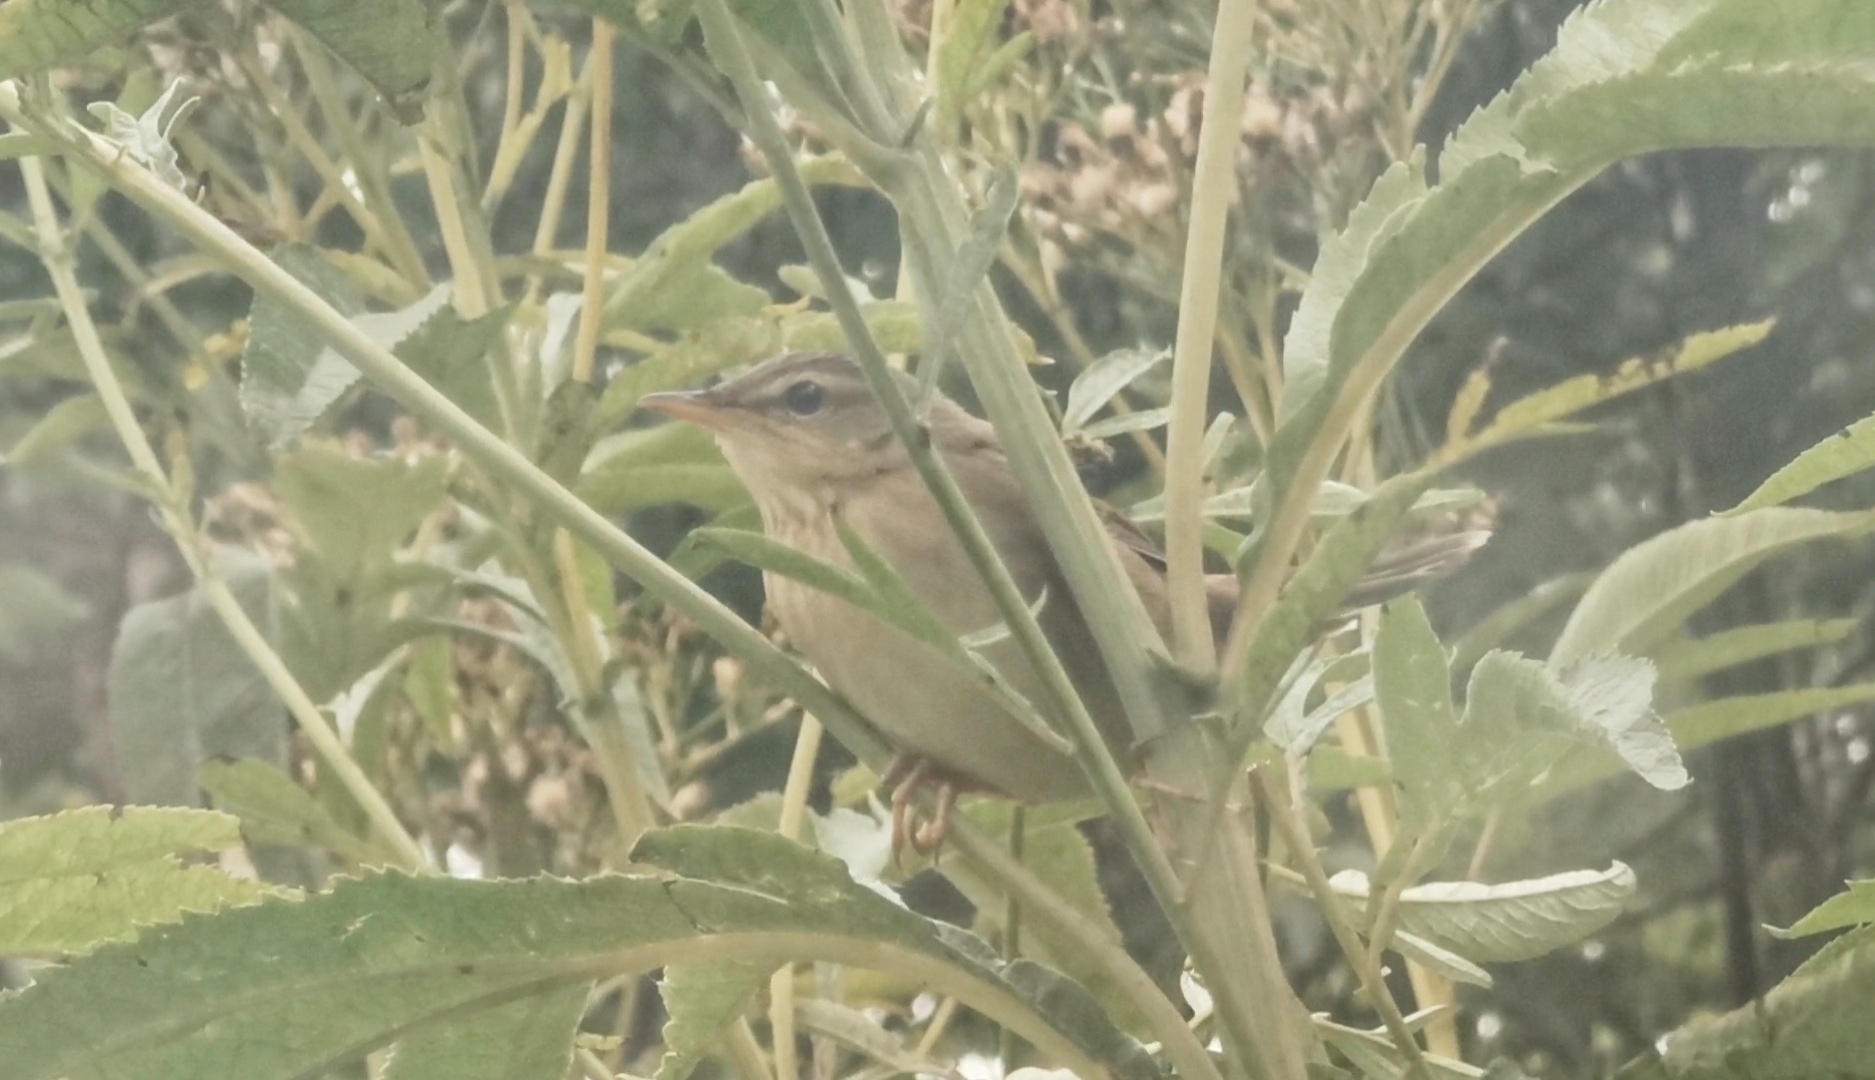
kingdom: Animalia
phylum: Chordata
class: Aves
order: Passeriformes
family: Locustellidae
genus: Locustella
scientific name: Locustella ochotensis
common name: Middendorff's grasshopper-warbler
